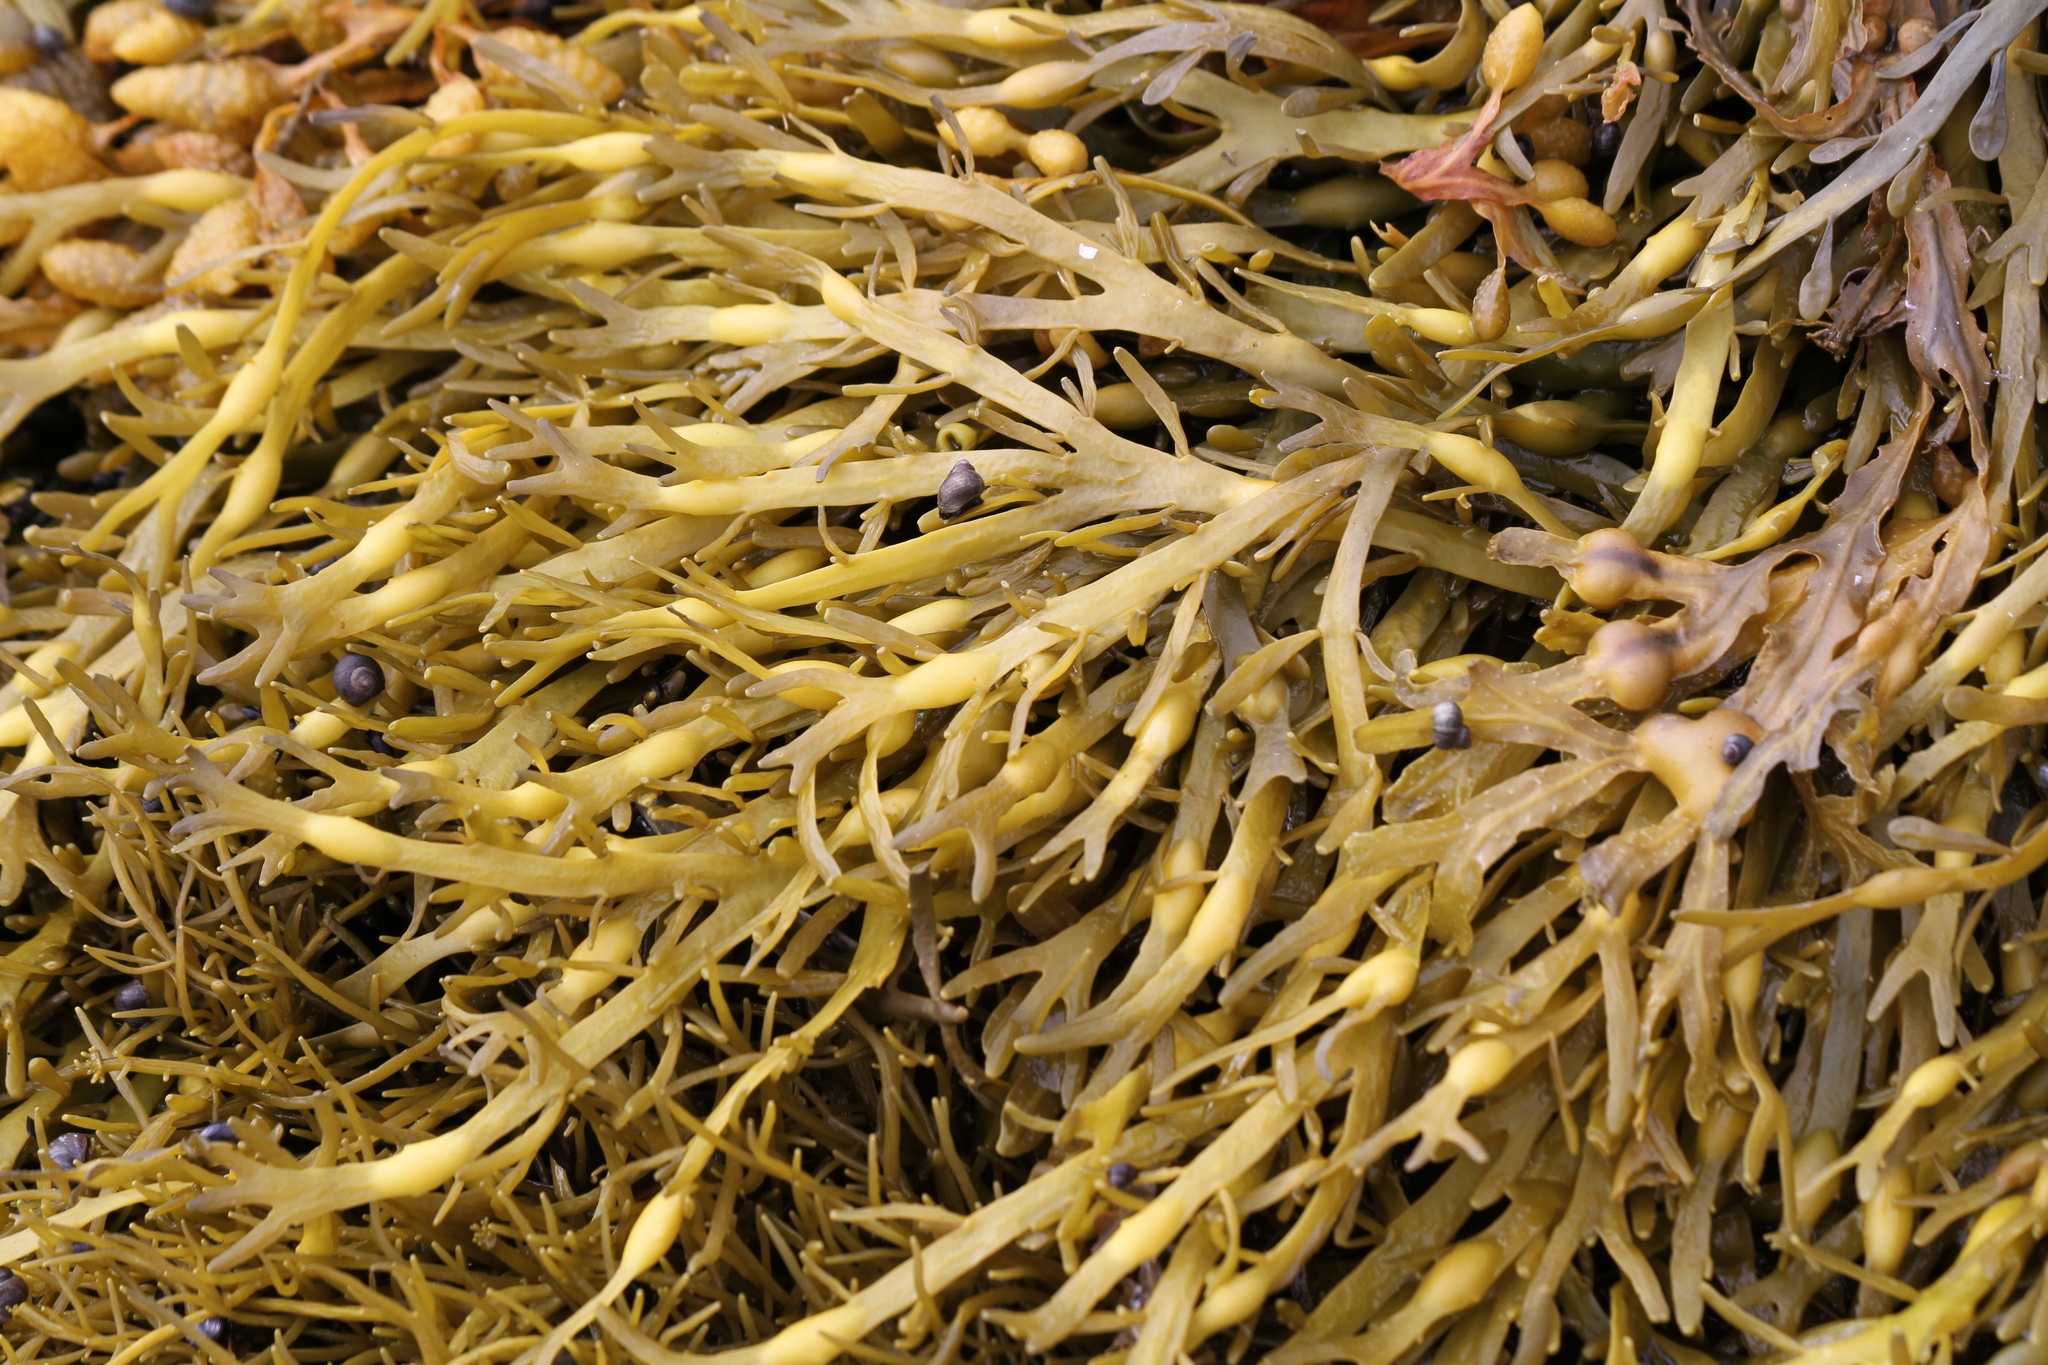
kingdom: Chromista
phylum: Ochrophyta
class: Phaeophyceae
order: Fucales
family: Fucaceae
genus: Ascophyllum
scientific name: Ascophyllum nodosum
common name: Knotted wrack
